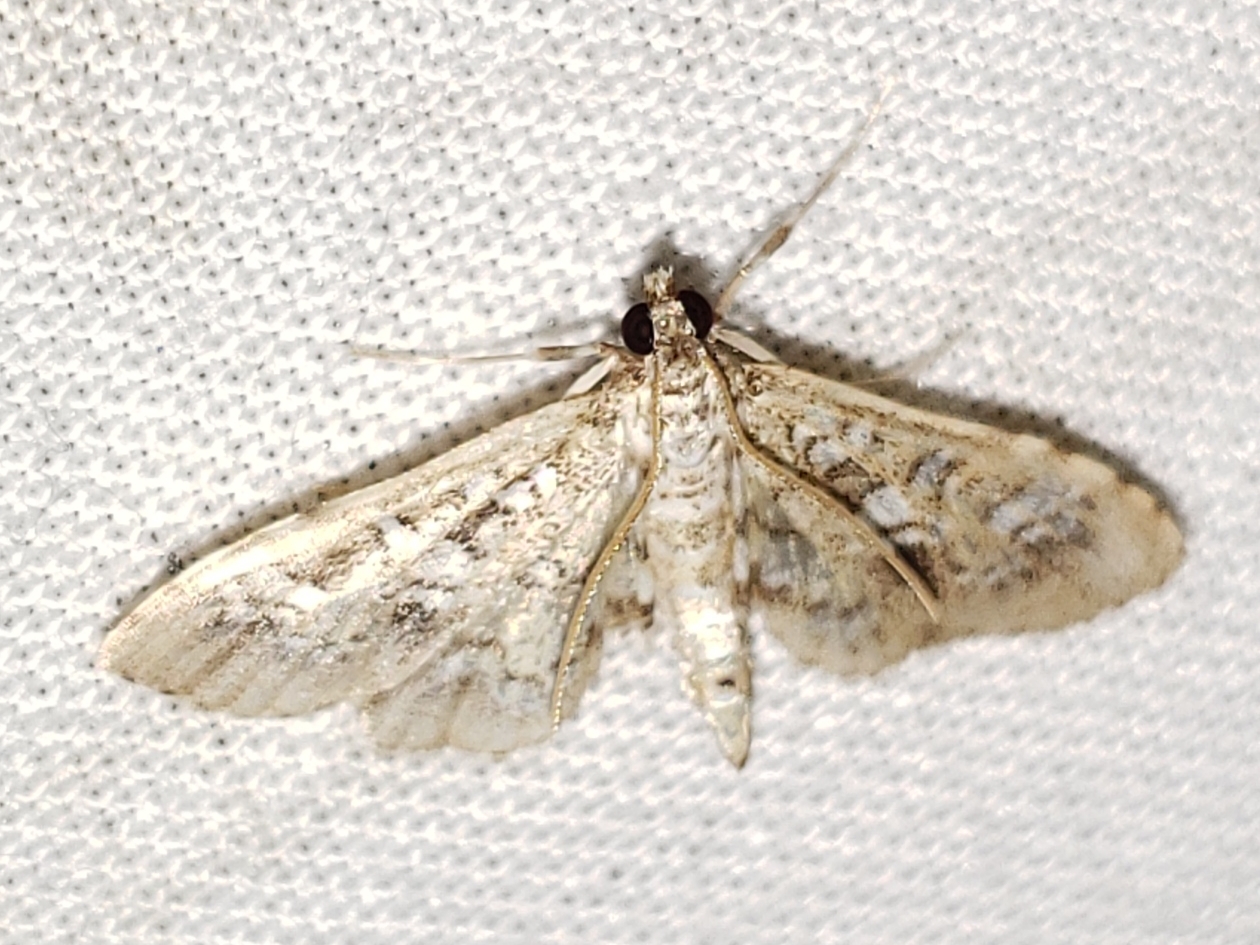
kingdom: Animalia
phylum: Arthropoda
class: Insecta
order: Lepidoptera
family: Crambidae
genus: Samea
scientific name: Samea multiplicalis
